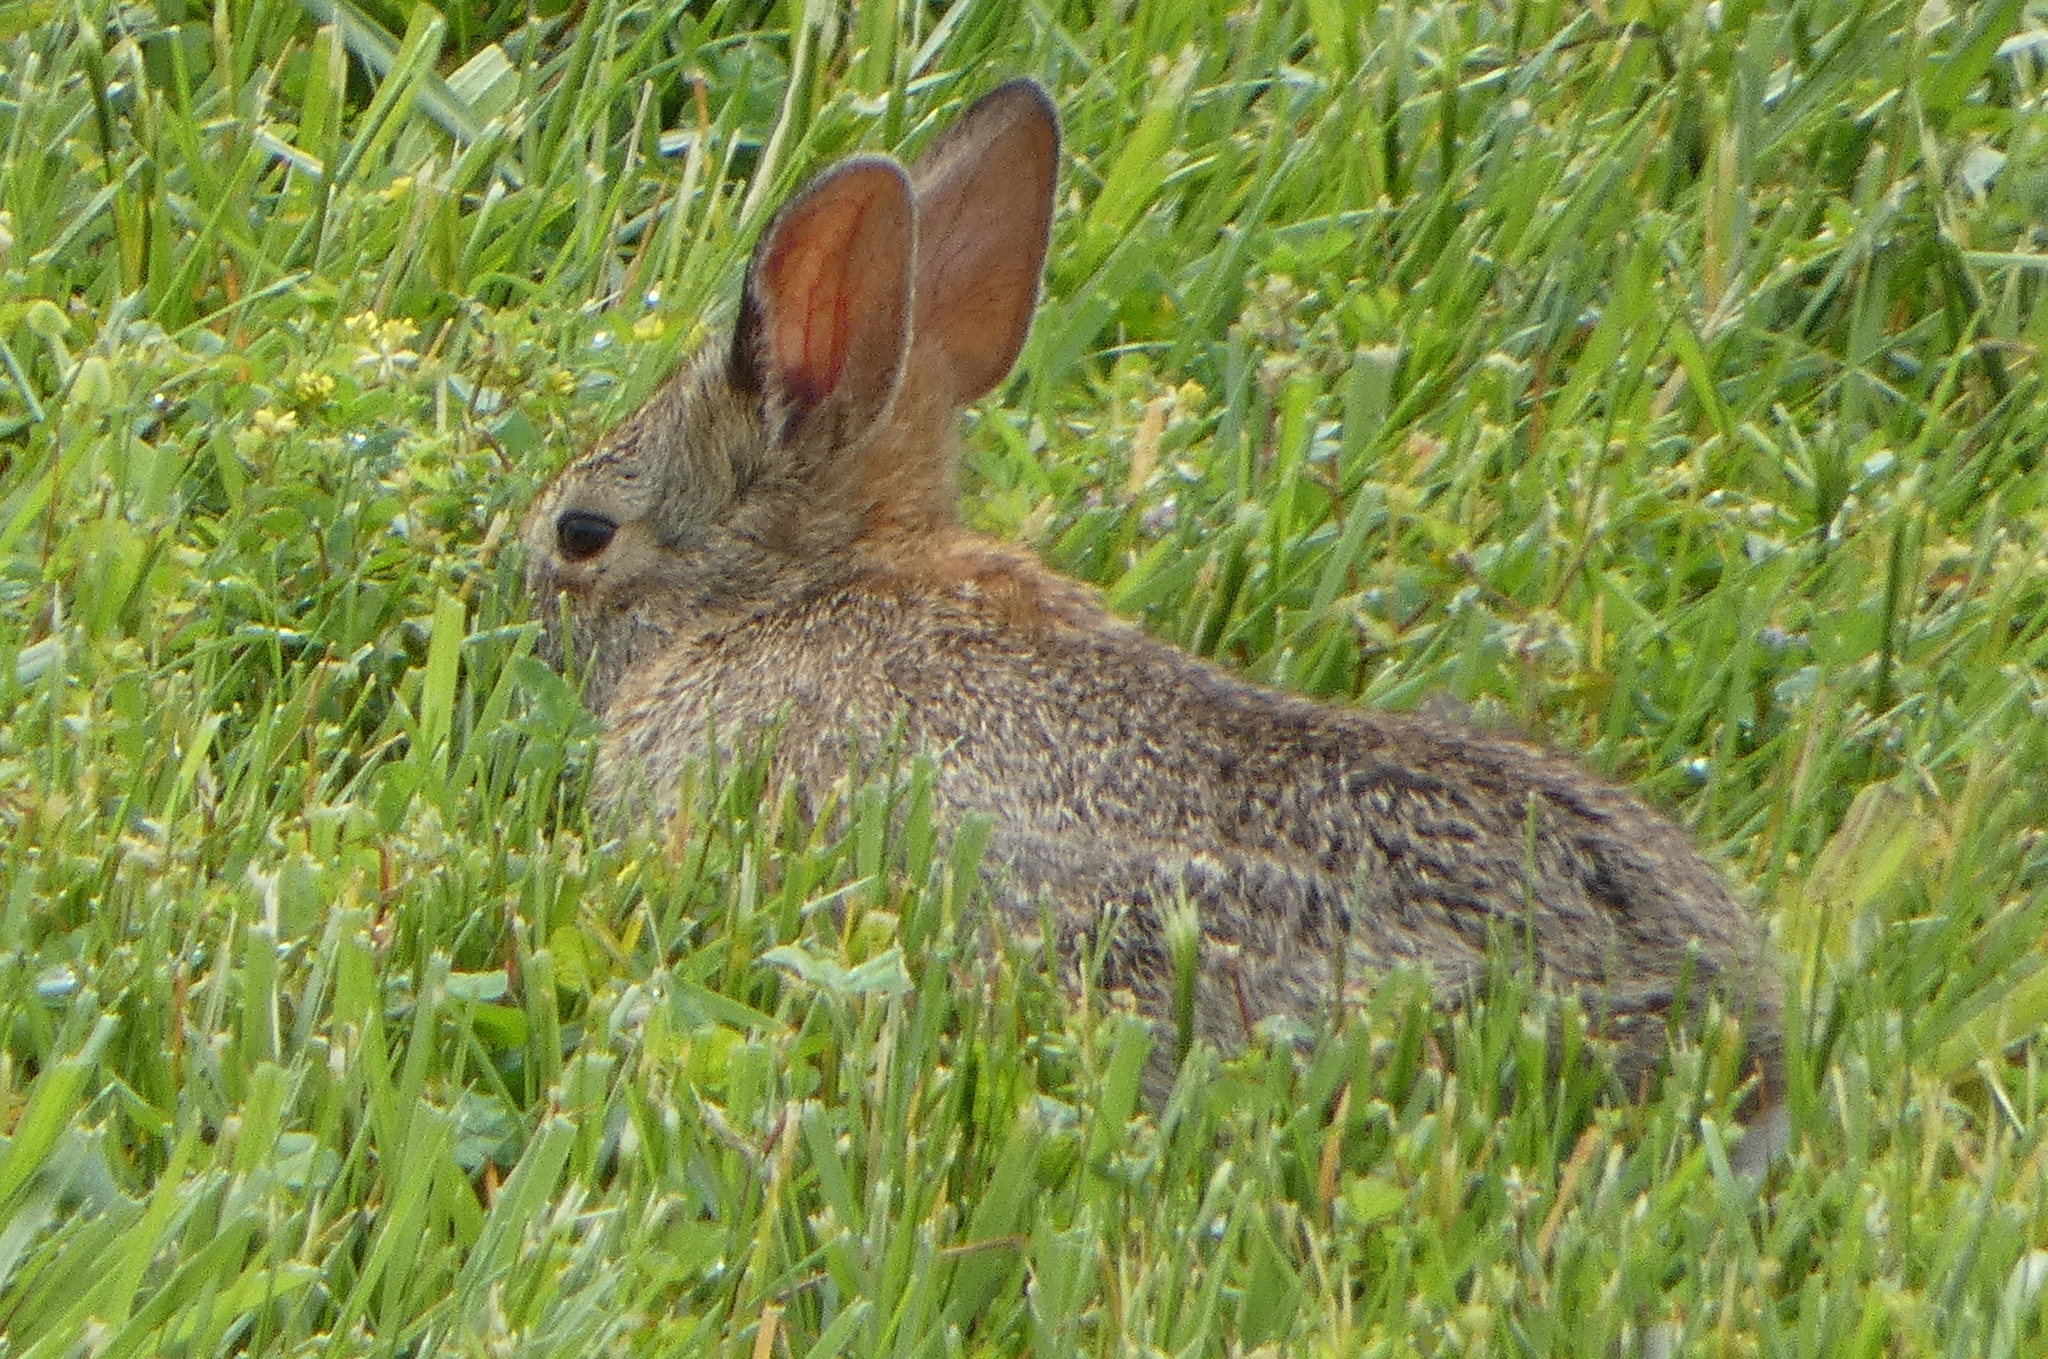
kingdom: Animalia
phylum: Chordata
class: Mammalia
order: Lagomorpha
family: Leporidae
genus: Sylvilagus
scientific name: Sylvilagus floridanus
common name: Eastern cottontail
